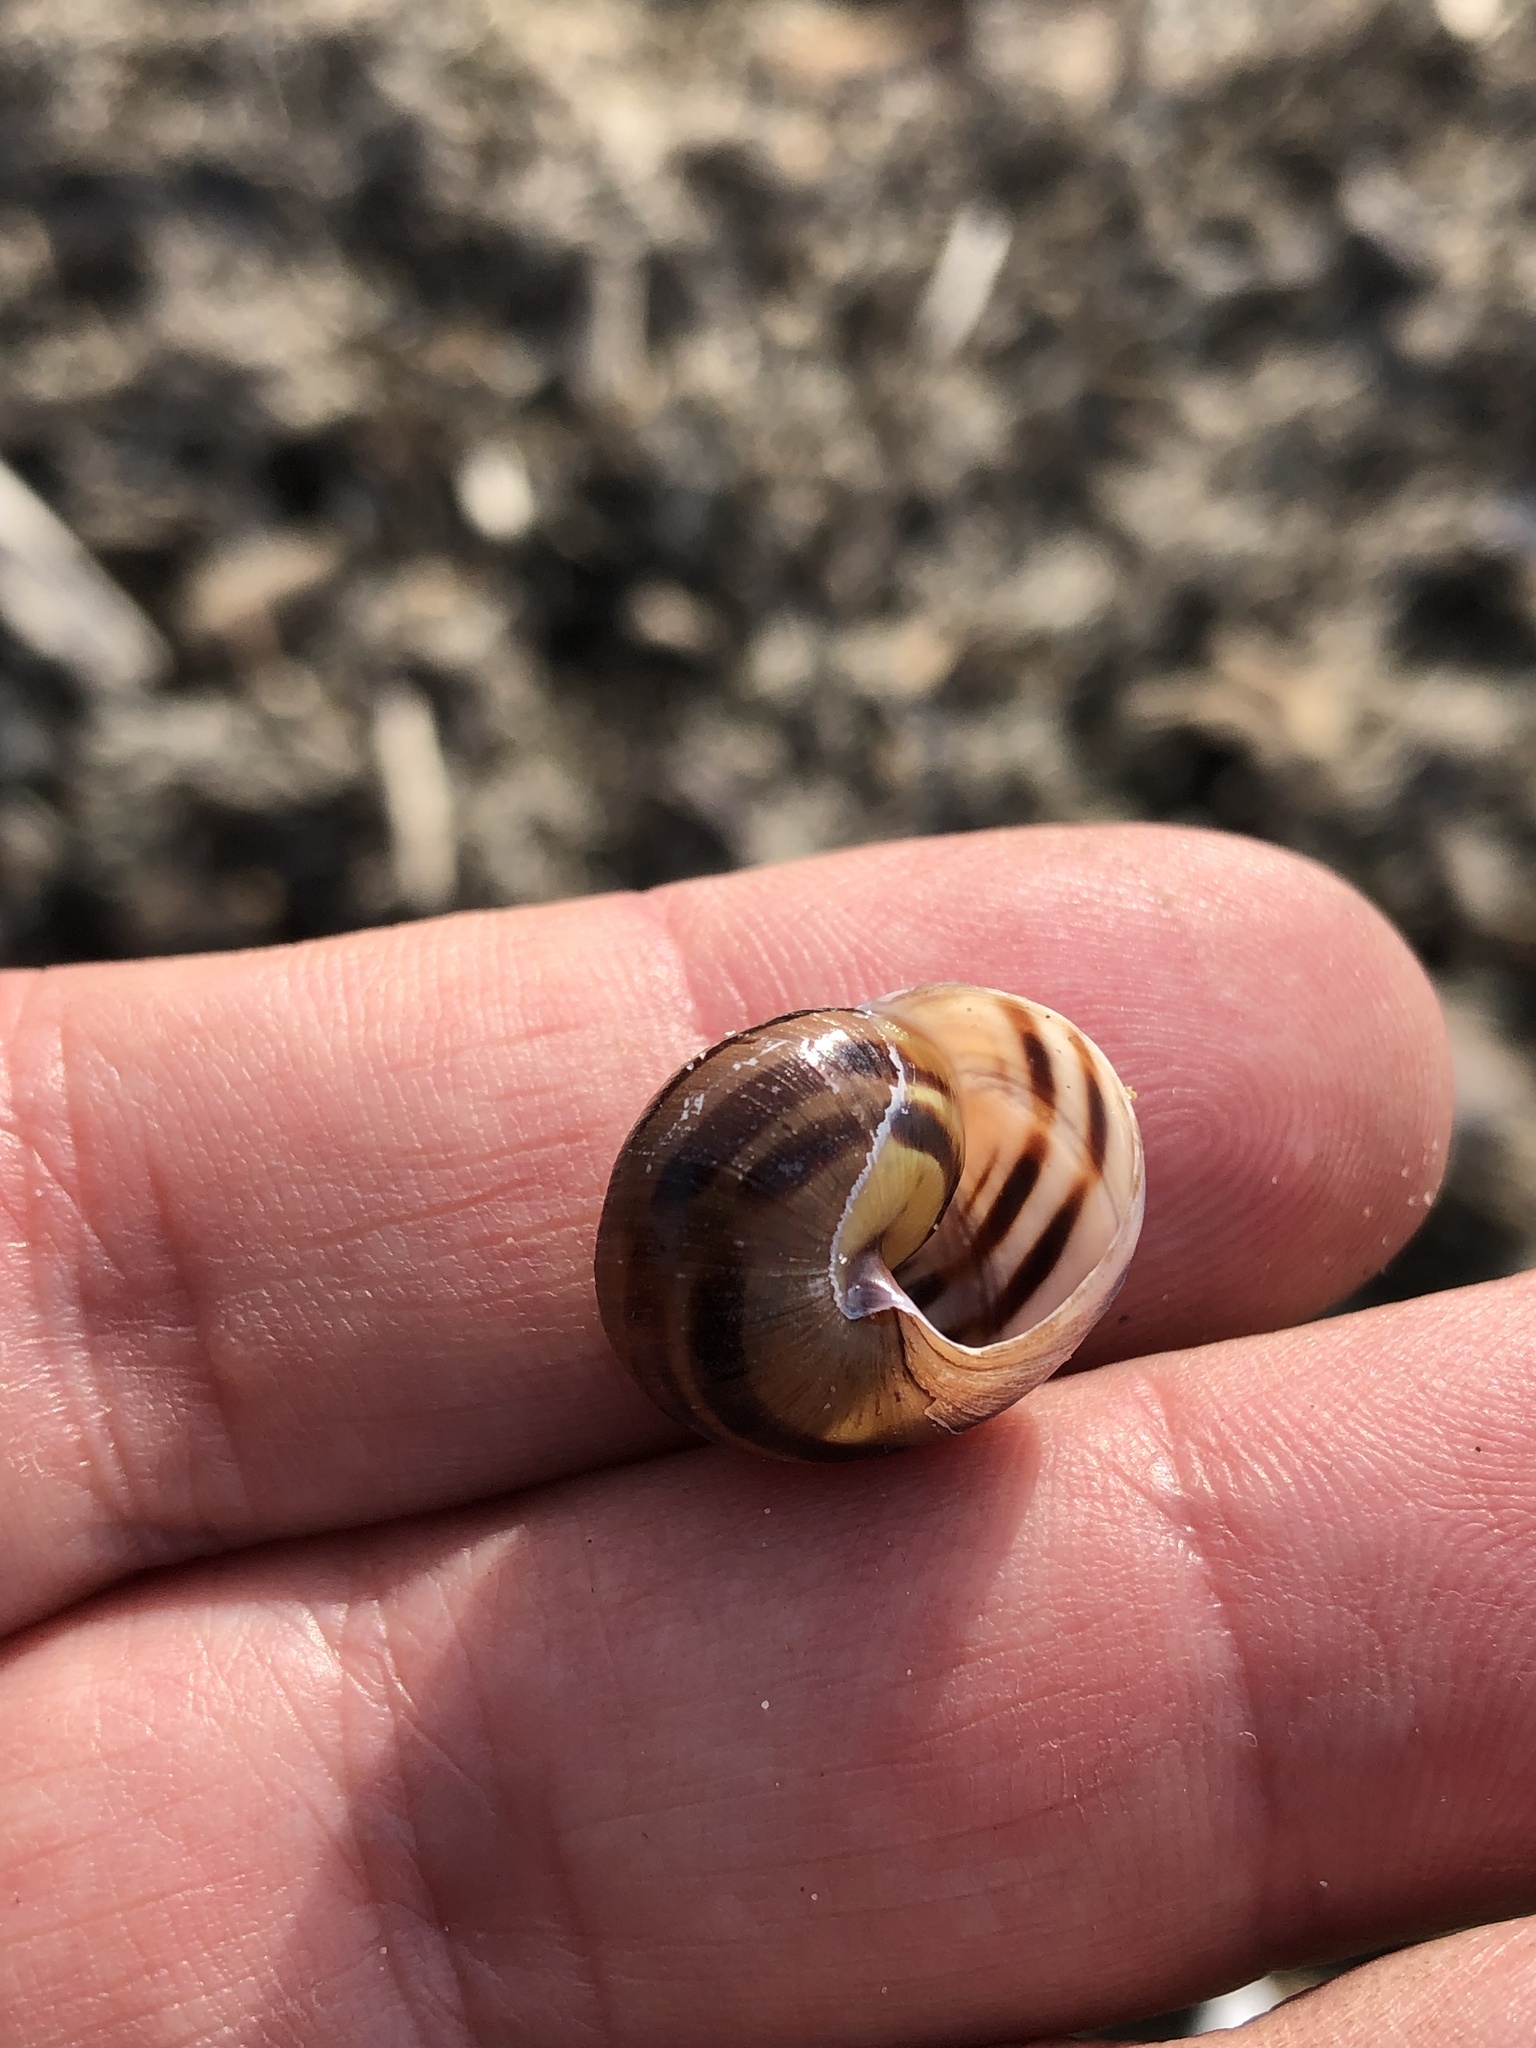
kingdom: Animalia
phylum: Mollusca
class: Gastropoda
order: Stylommatophora
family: Helicidae
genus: Cepaea
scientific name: Cepaea nemoralis
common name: Grovesnail
